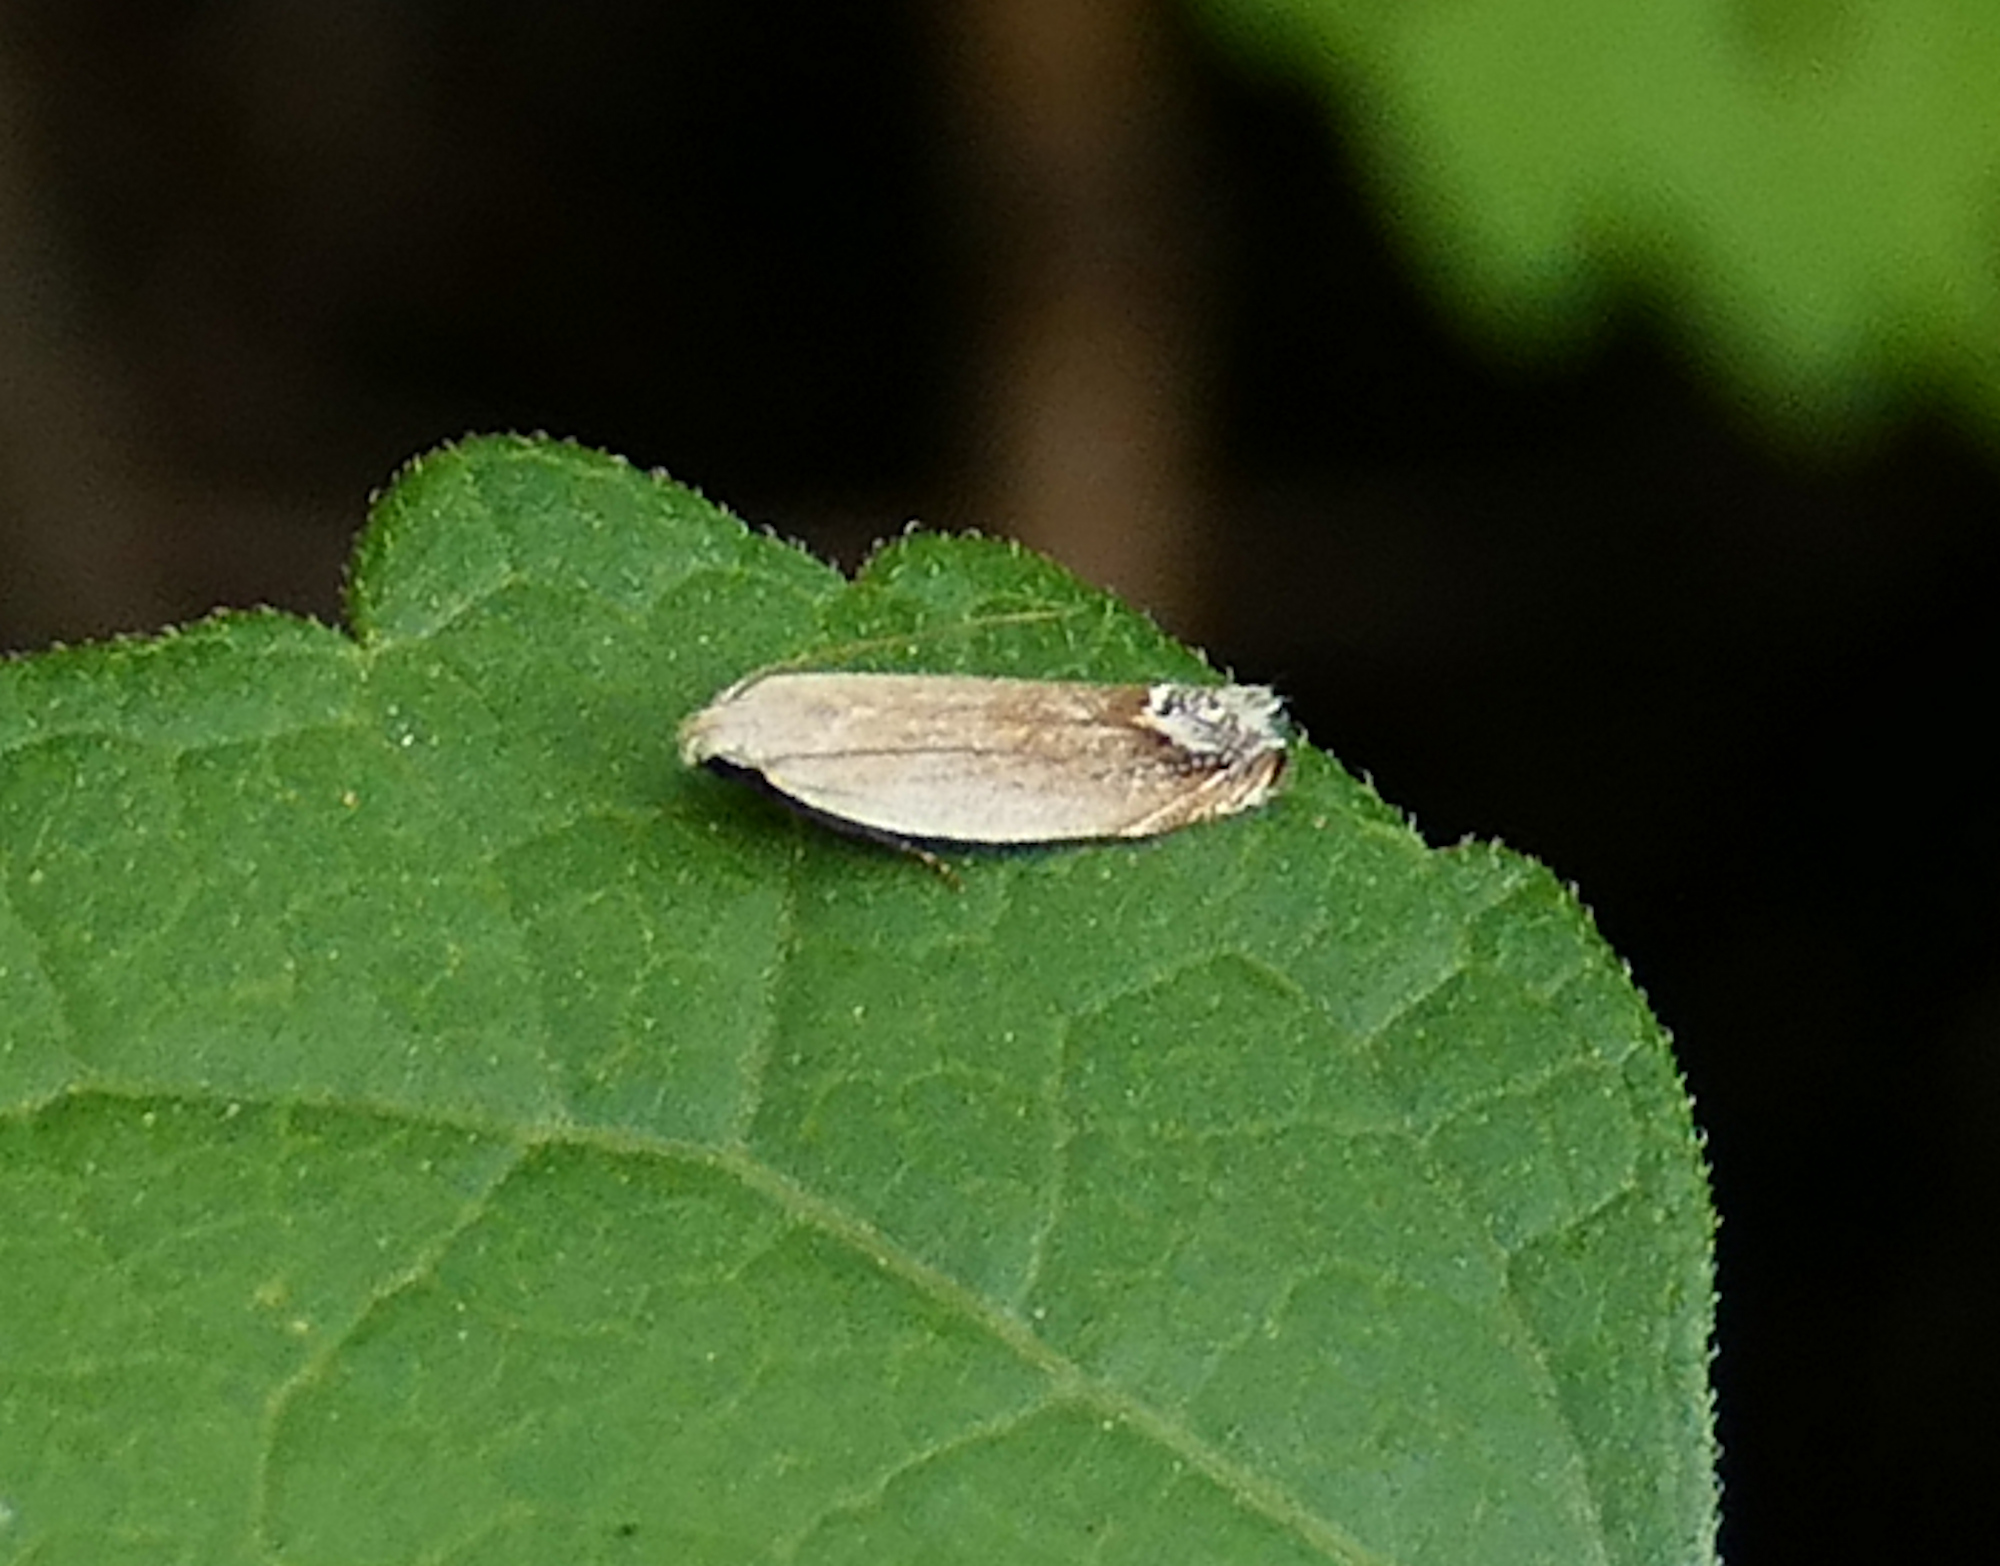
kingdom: Animalia
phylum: Arthropoda
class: Insecta
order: Lepidoptera
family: Gelechiidae
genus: Anacampsis
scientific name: Anacampsis paltodoriella
